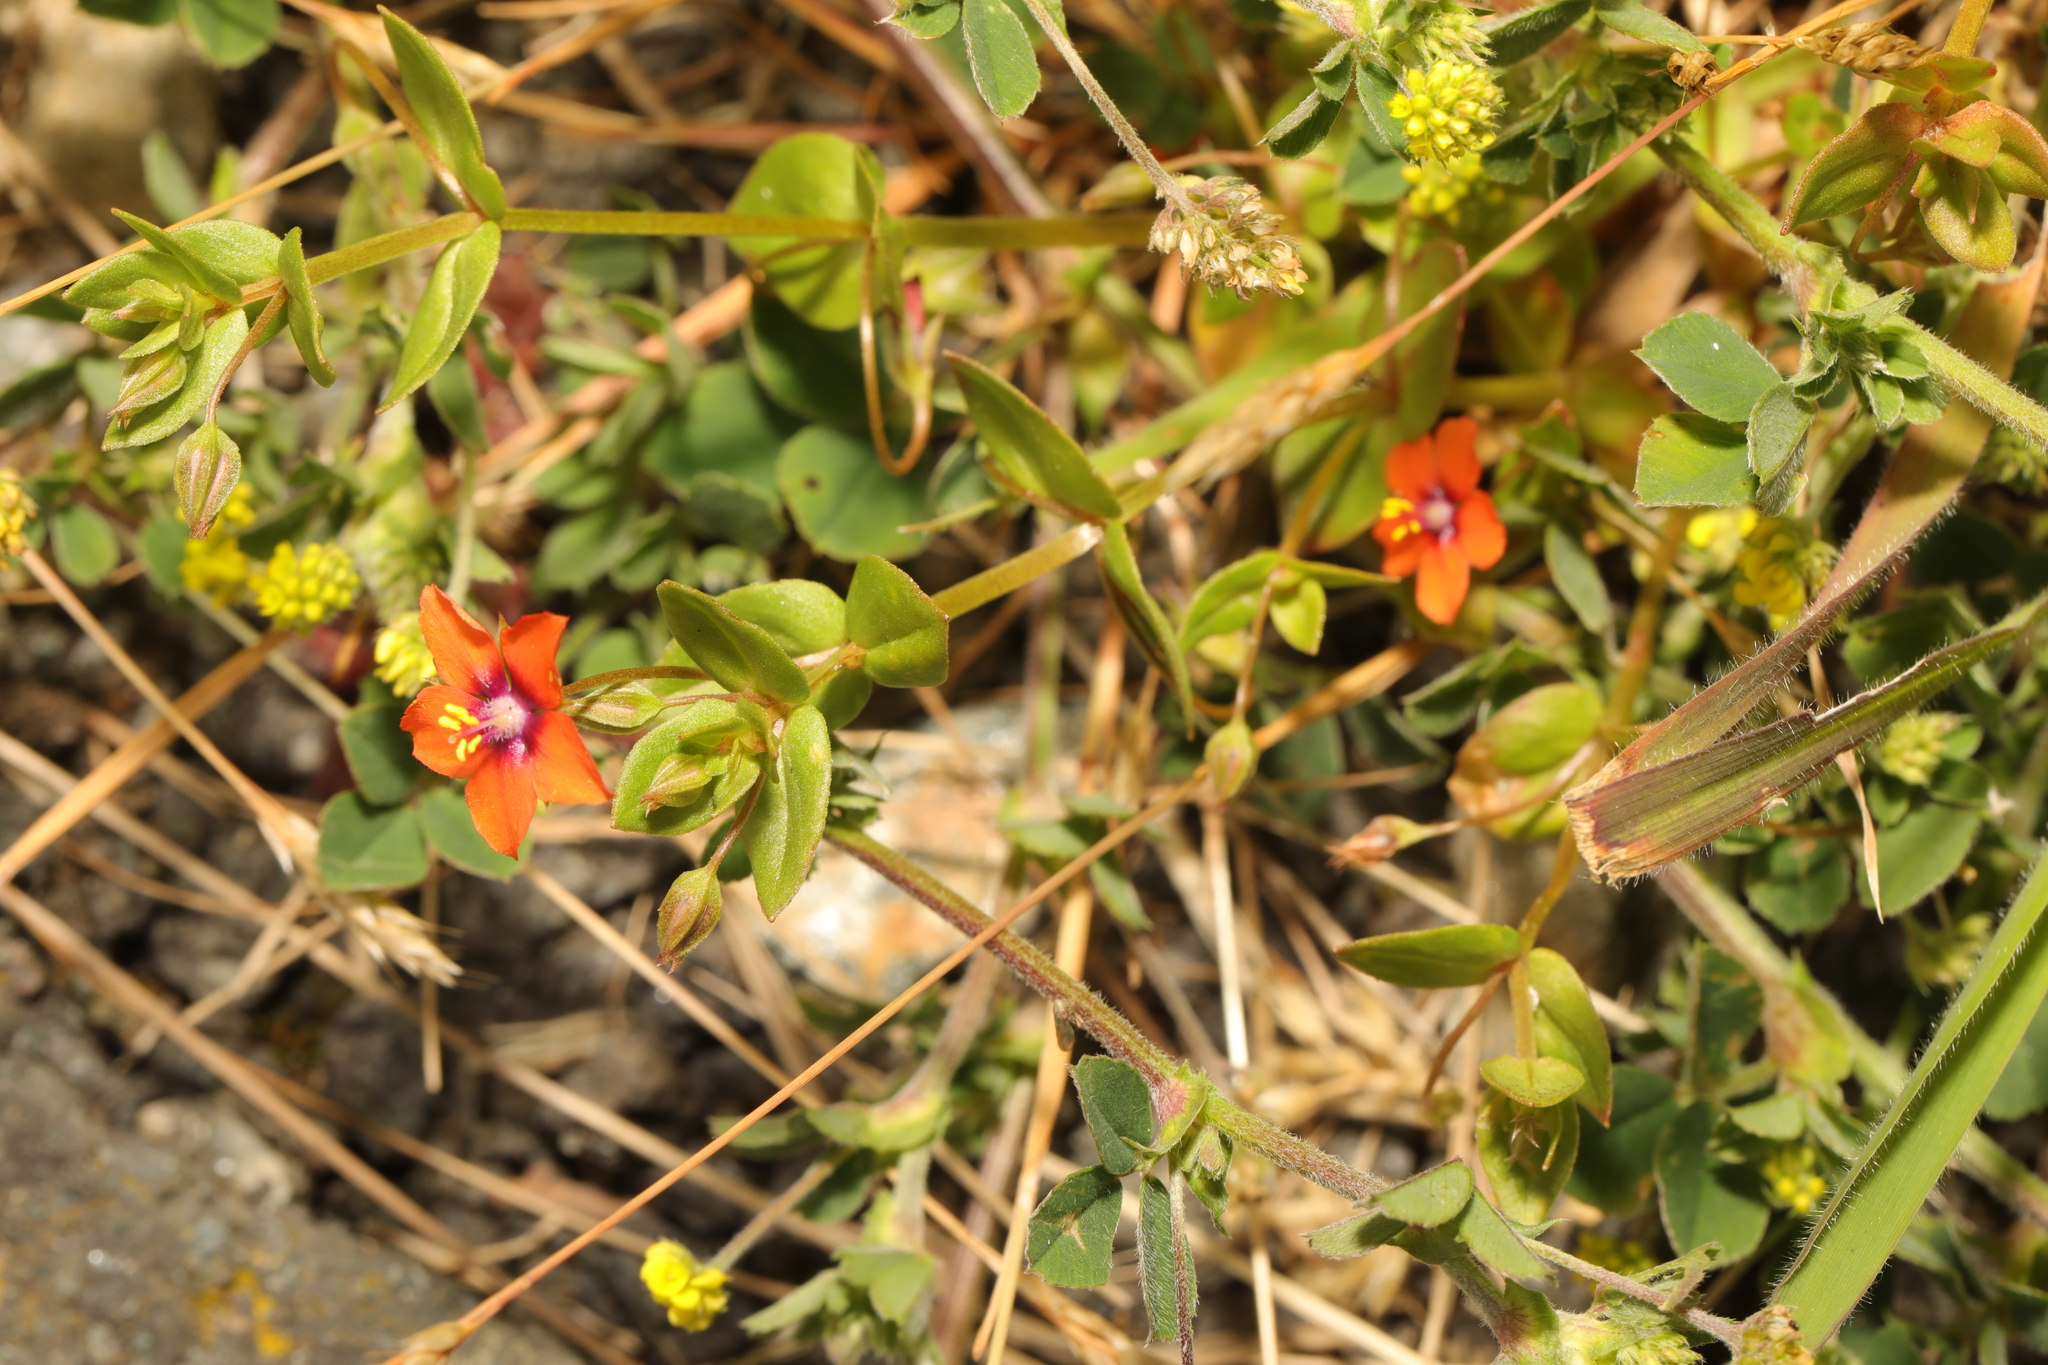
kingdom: Plantae
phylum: Tracheophyta
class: Magnoliopsida
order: Ericales
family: Primulaceae
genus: Lysimachia
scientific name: Lysimachia arvensis
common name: Scarlet pimpernel
